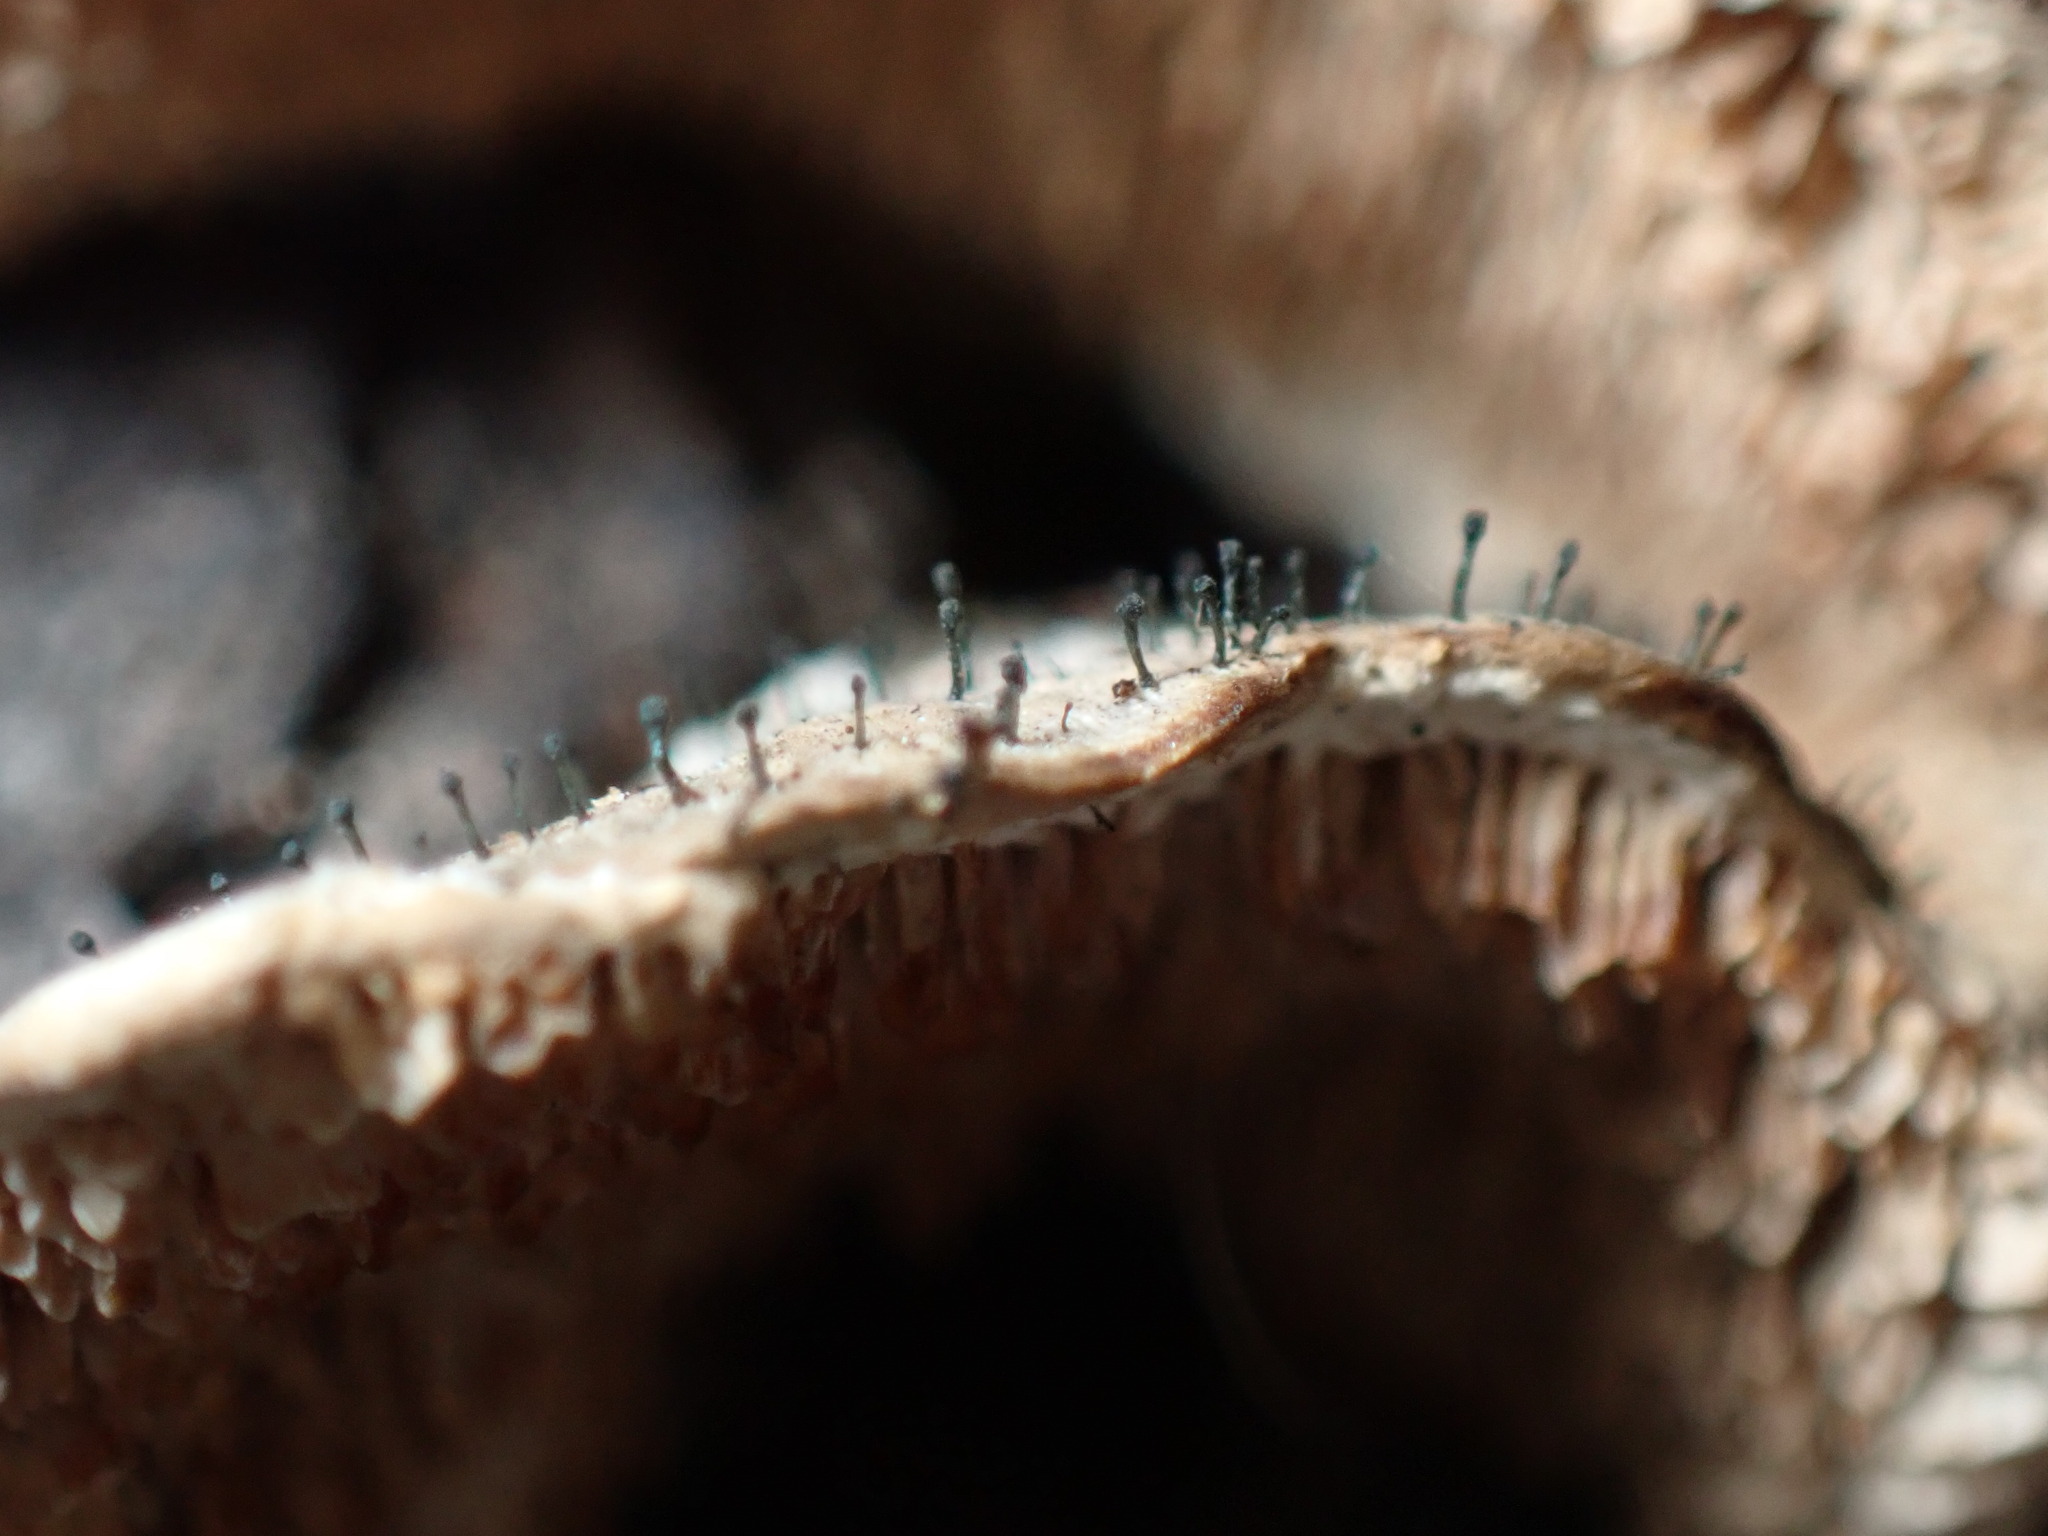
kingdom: Fungi
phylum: Ascomycota
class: Eurotiomycetes
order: Mycocaliciales
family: Mycocaliciaceae
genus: Phaeocalicium
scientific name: Phaeocalicium polyporaeum
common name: Fairy pins
